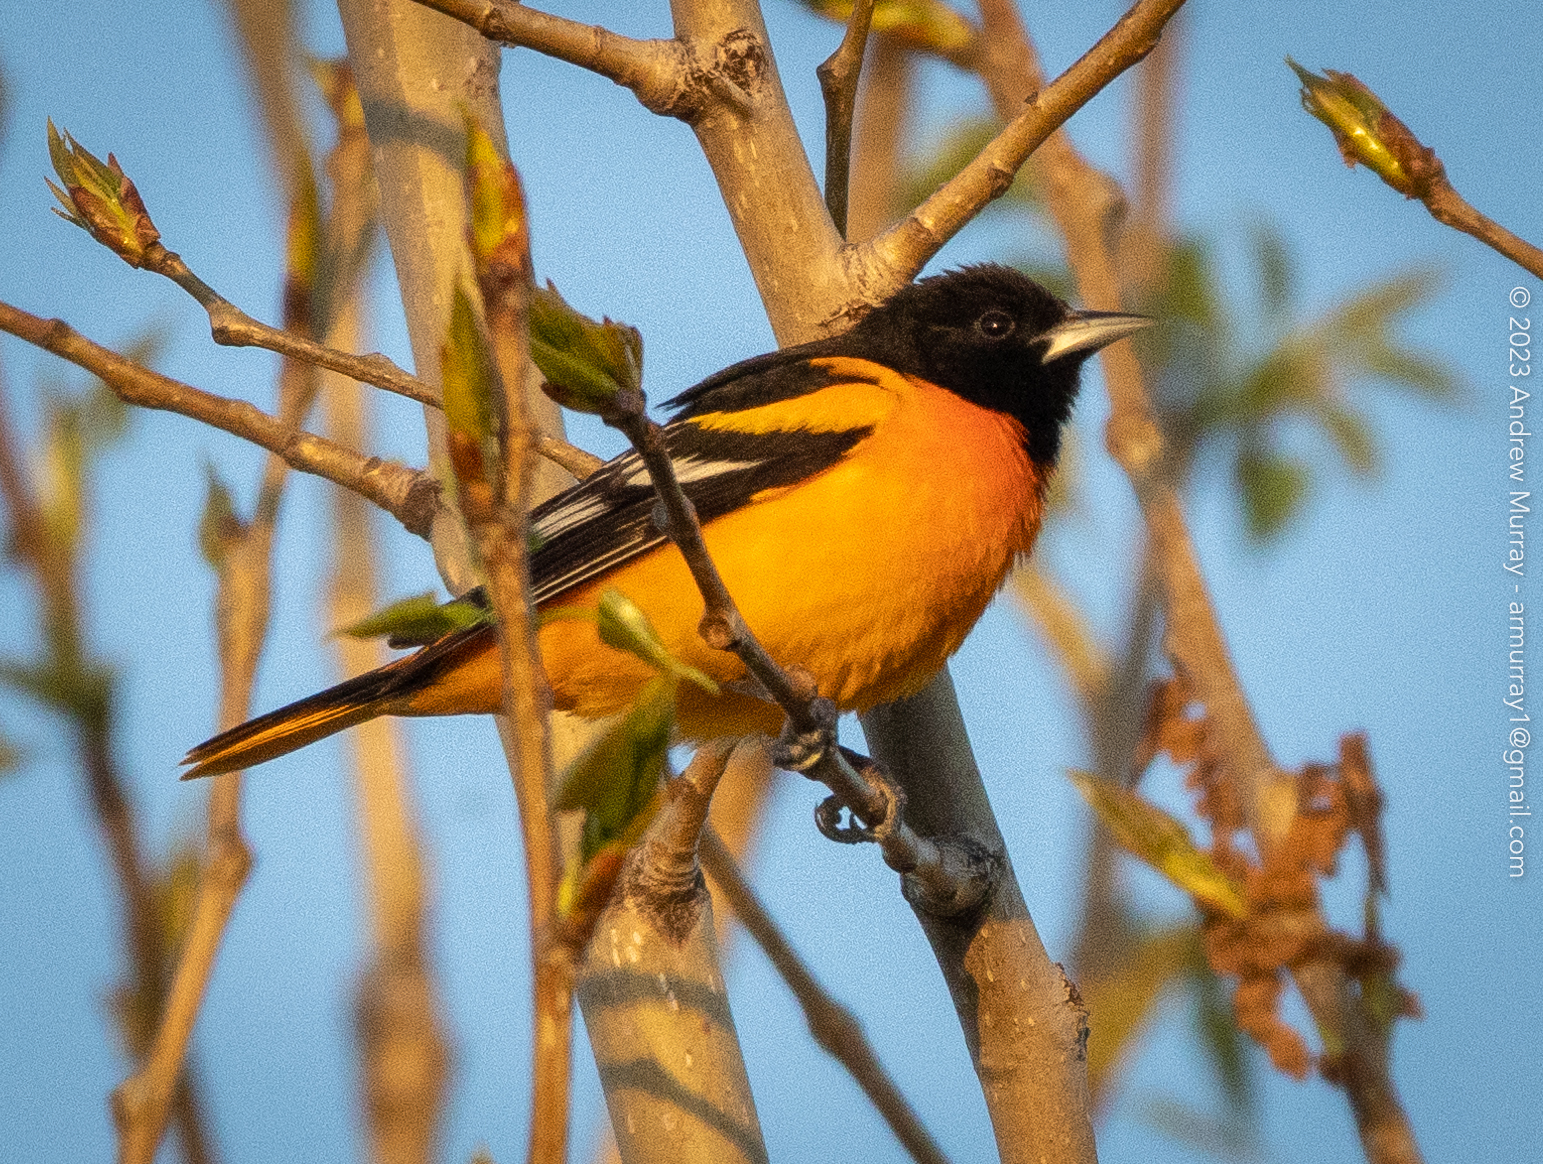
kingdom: Animalia
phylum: Chordata
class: Aves
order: Passeriformes
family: Icteridae
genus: Icterus
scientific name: Icterus galbula
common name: Baltimore oriole
